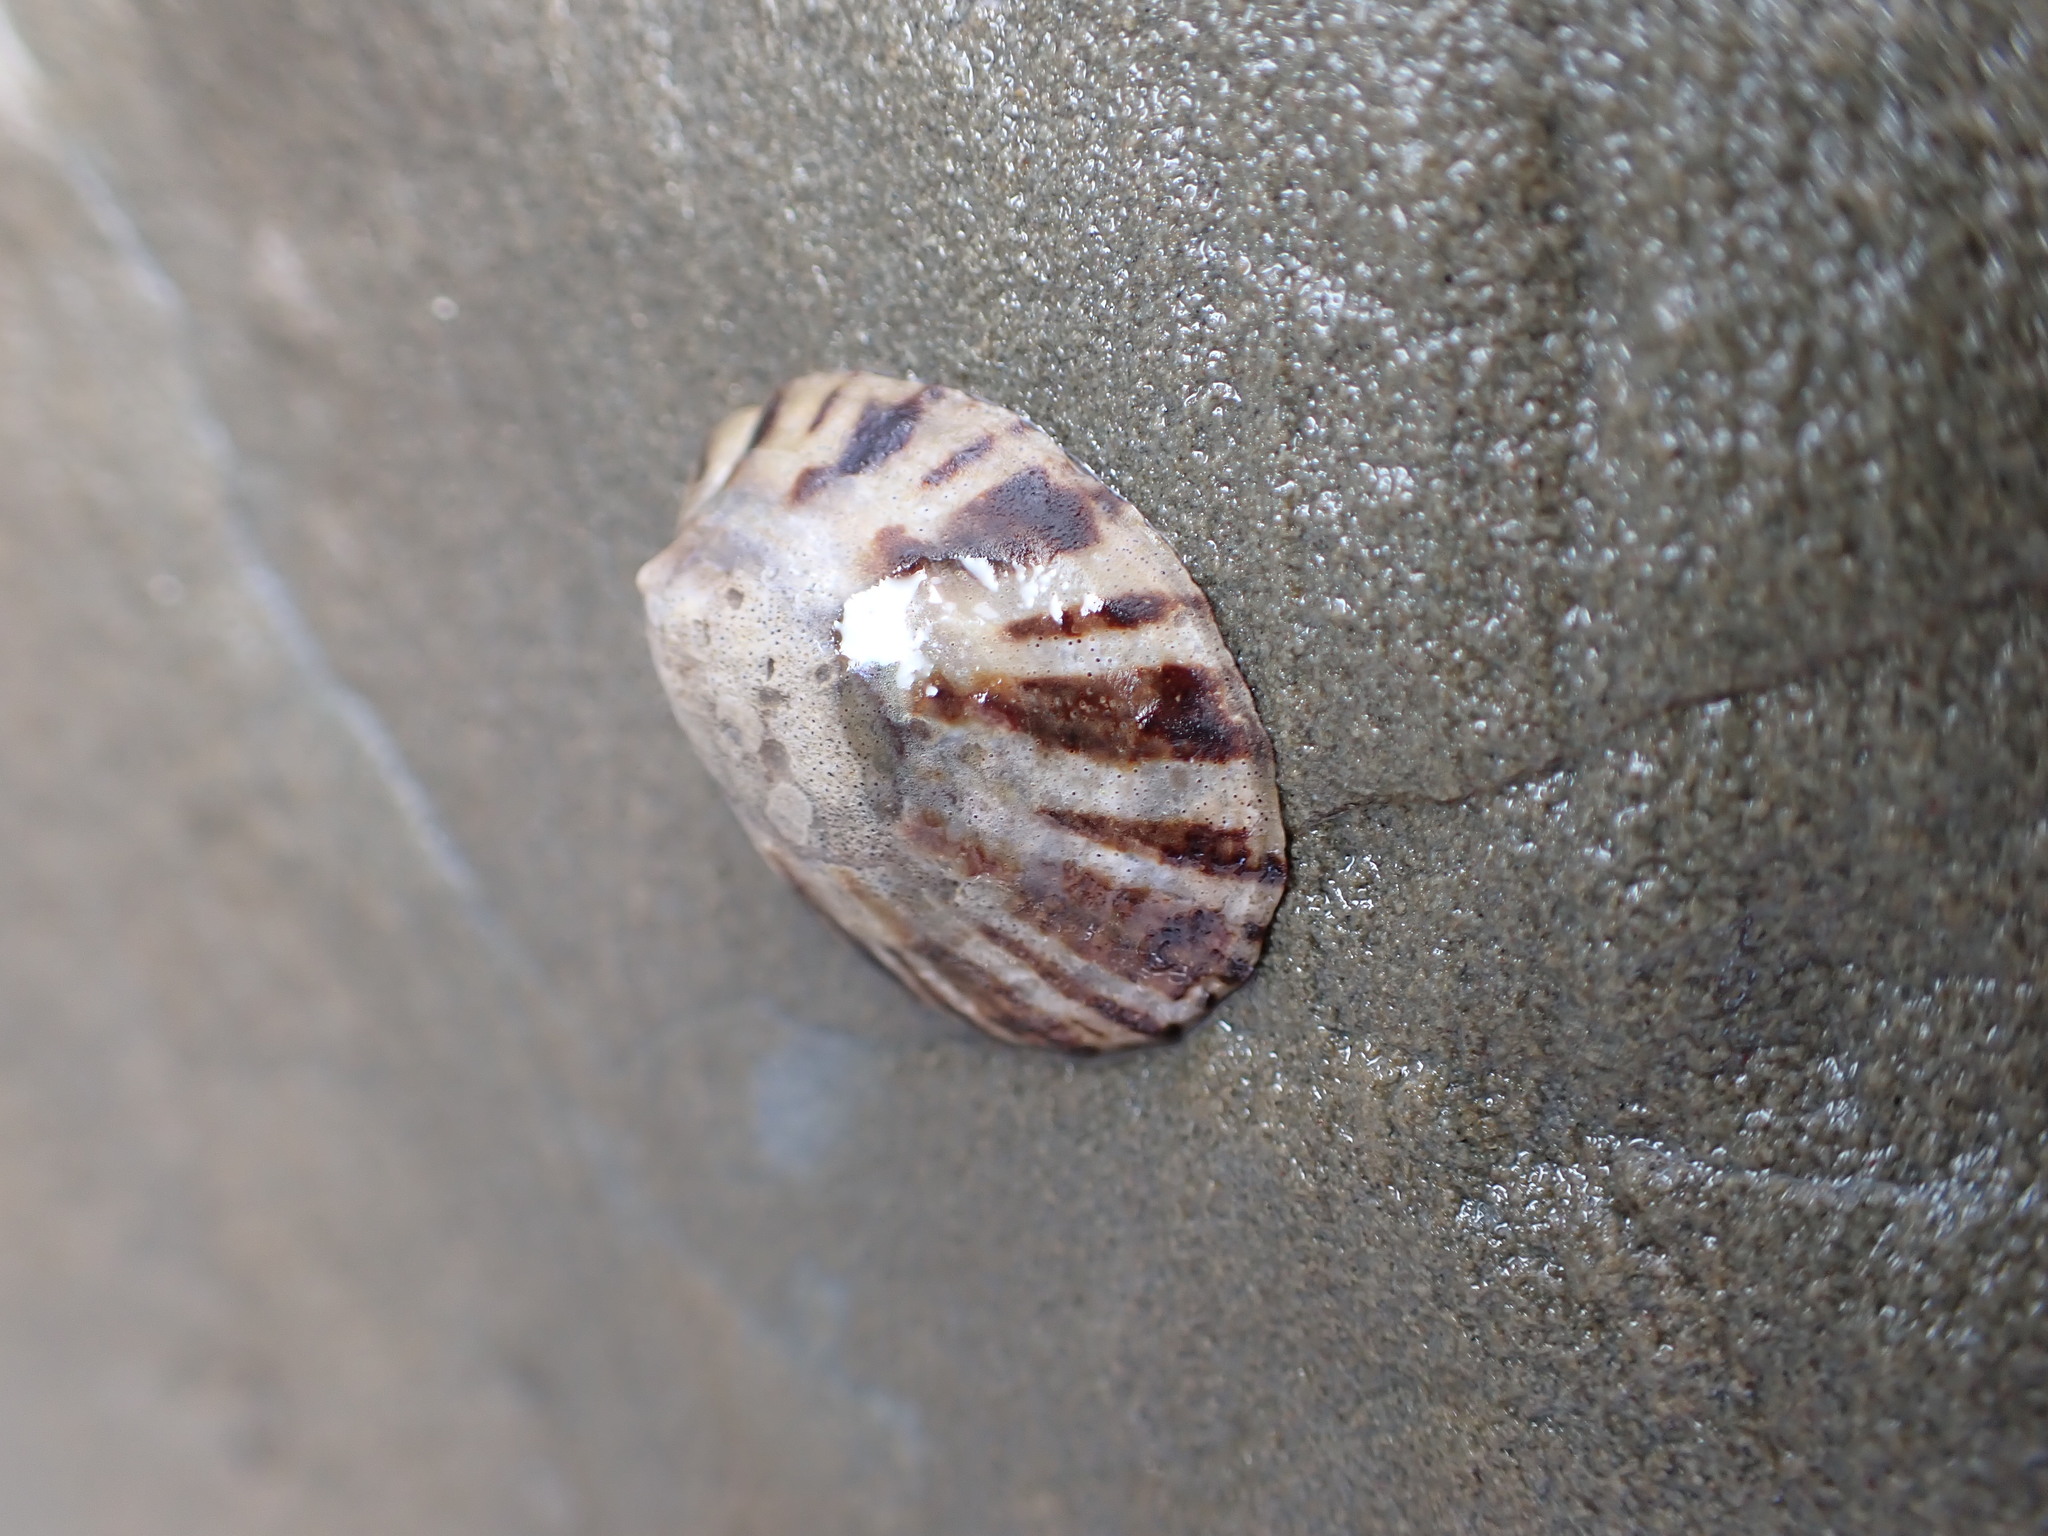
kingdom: Animalia
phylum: Mollusca
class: Gastropoda
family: Nacellidae
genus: Cellana
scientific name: Cellana radians
